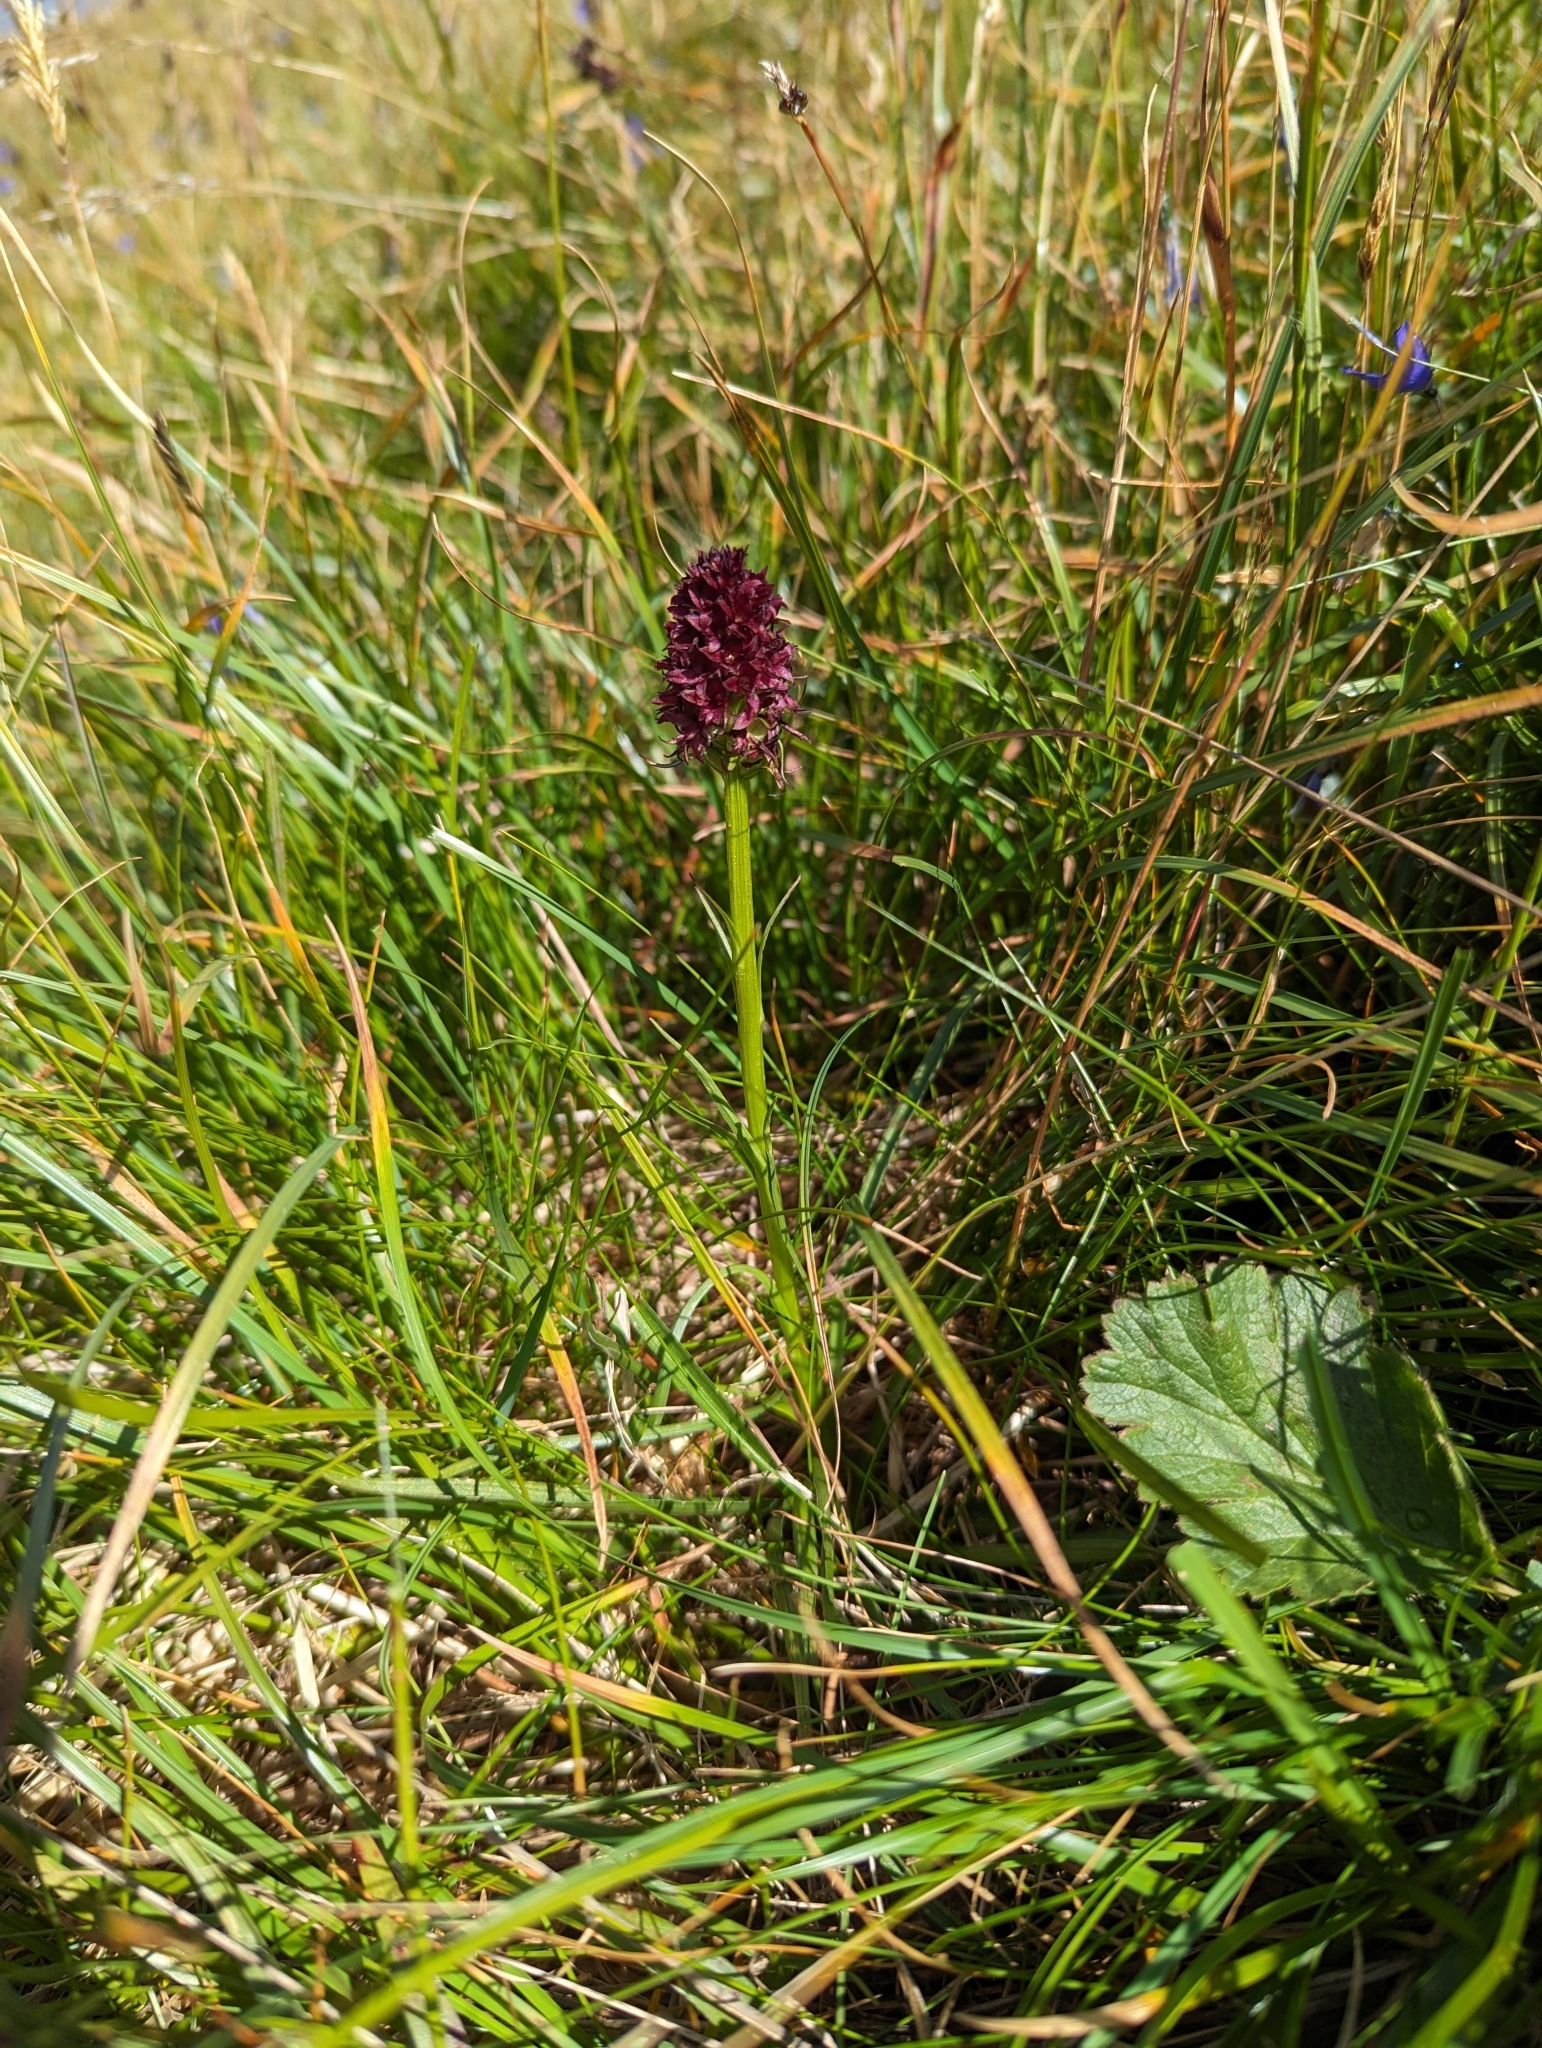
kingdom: Plantae
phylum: Tracheophyta
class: Liliopsida
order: Asparagales
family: Orchidaceae
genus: Gymnadenia
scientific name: Gymnadenia rhellicani
